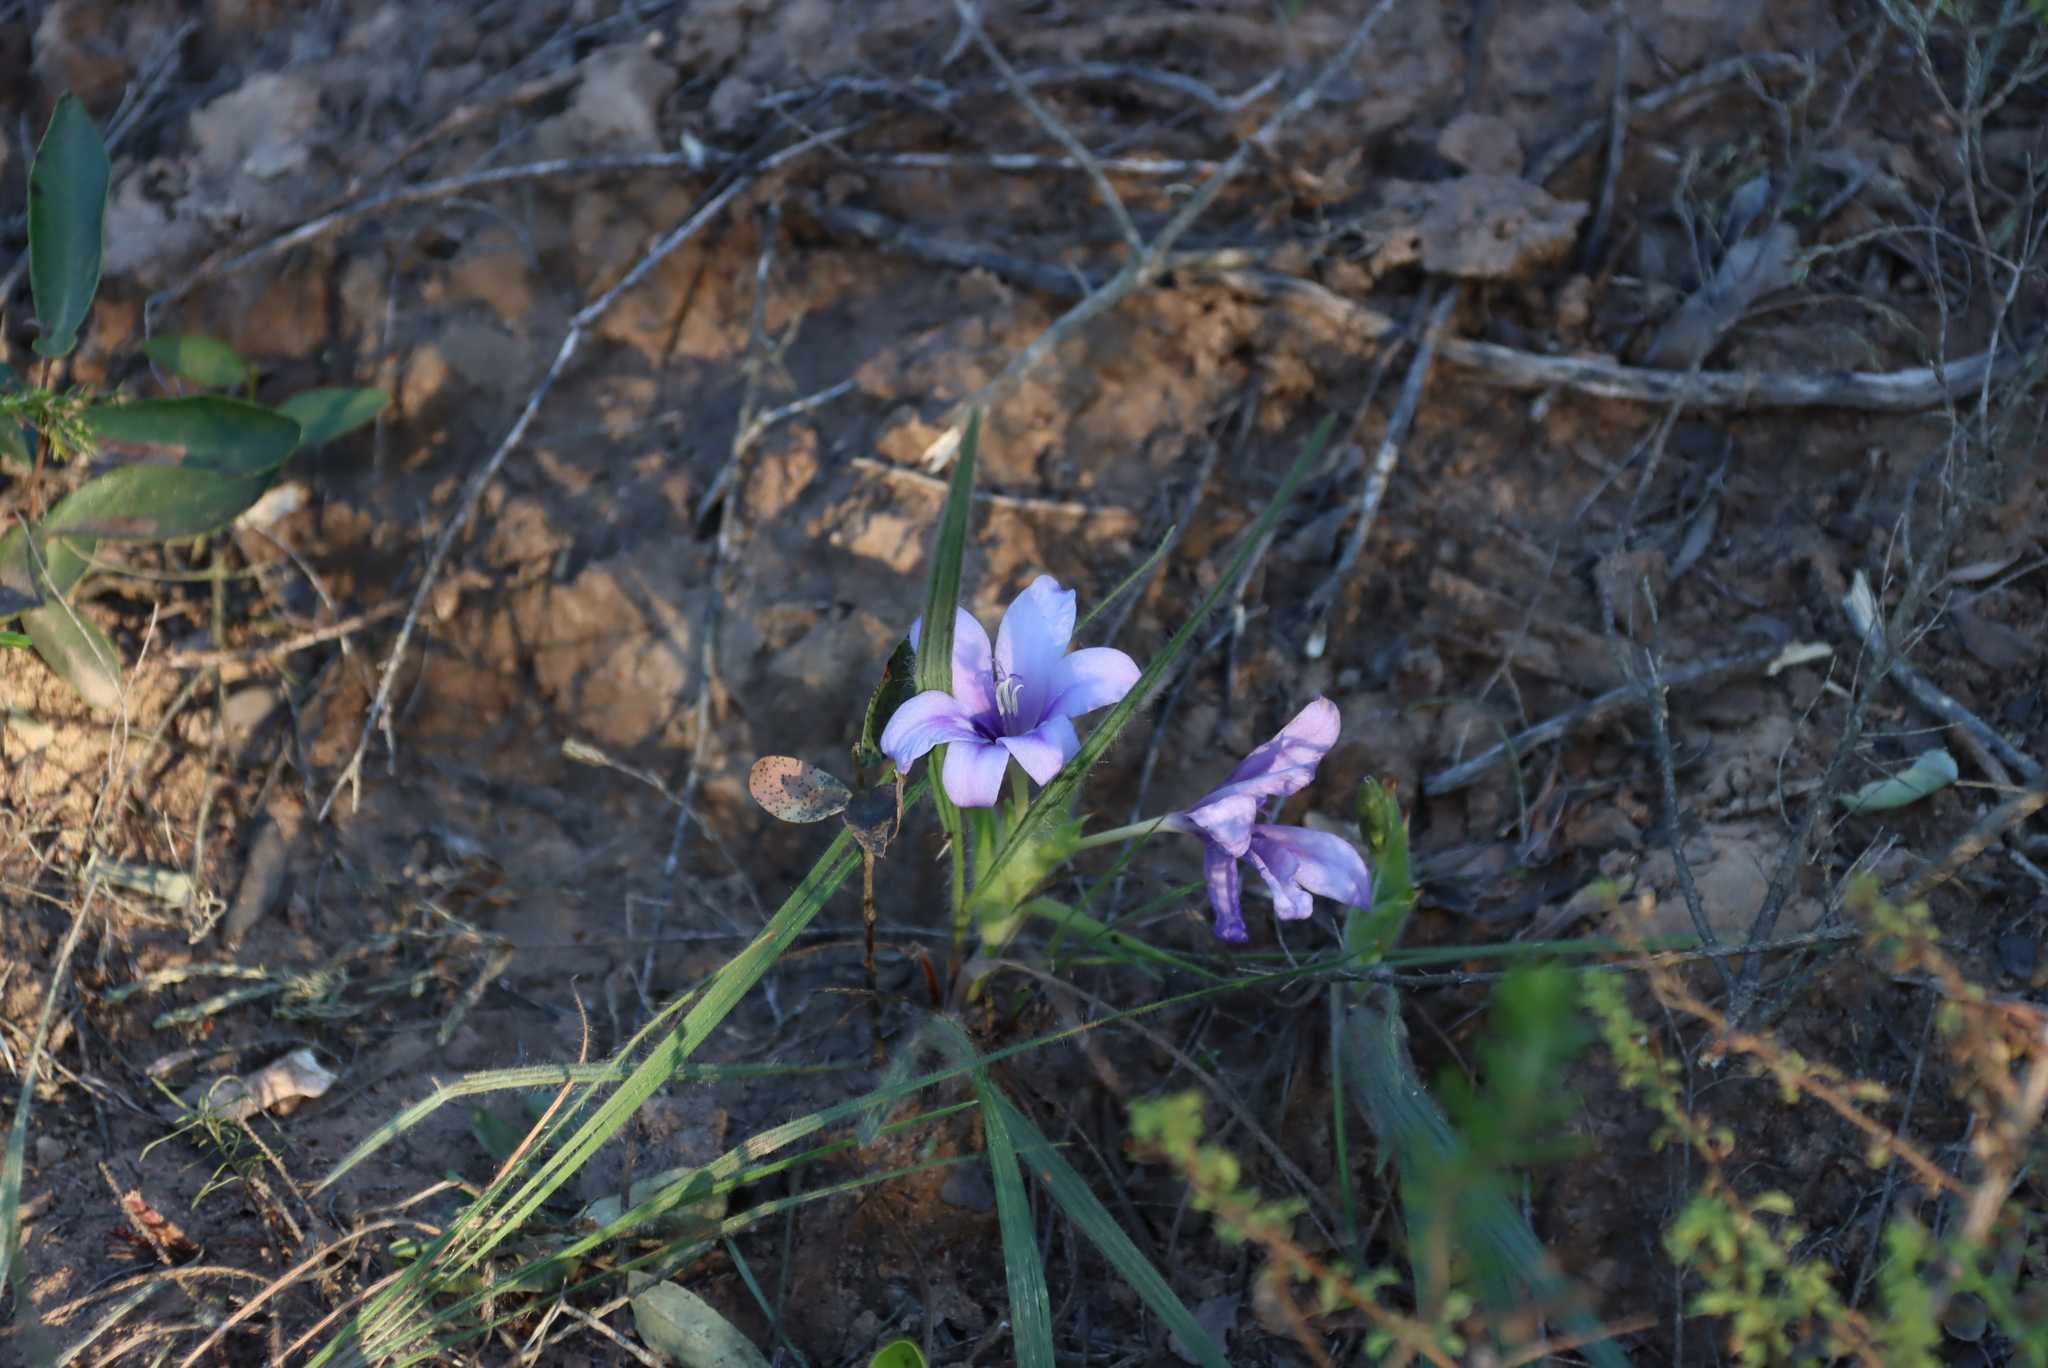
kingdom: Plantae
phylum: Tracheophyta
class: Liliopsida
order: Asparagales
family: Iridaceae
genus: Babiana
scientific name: Babiana sambucina
